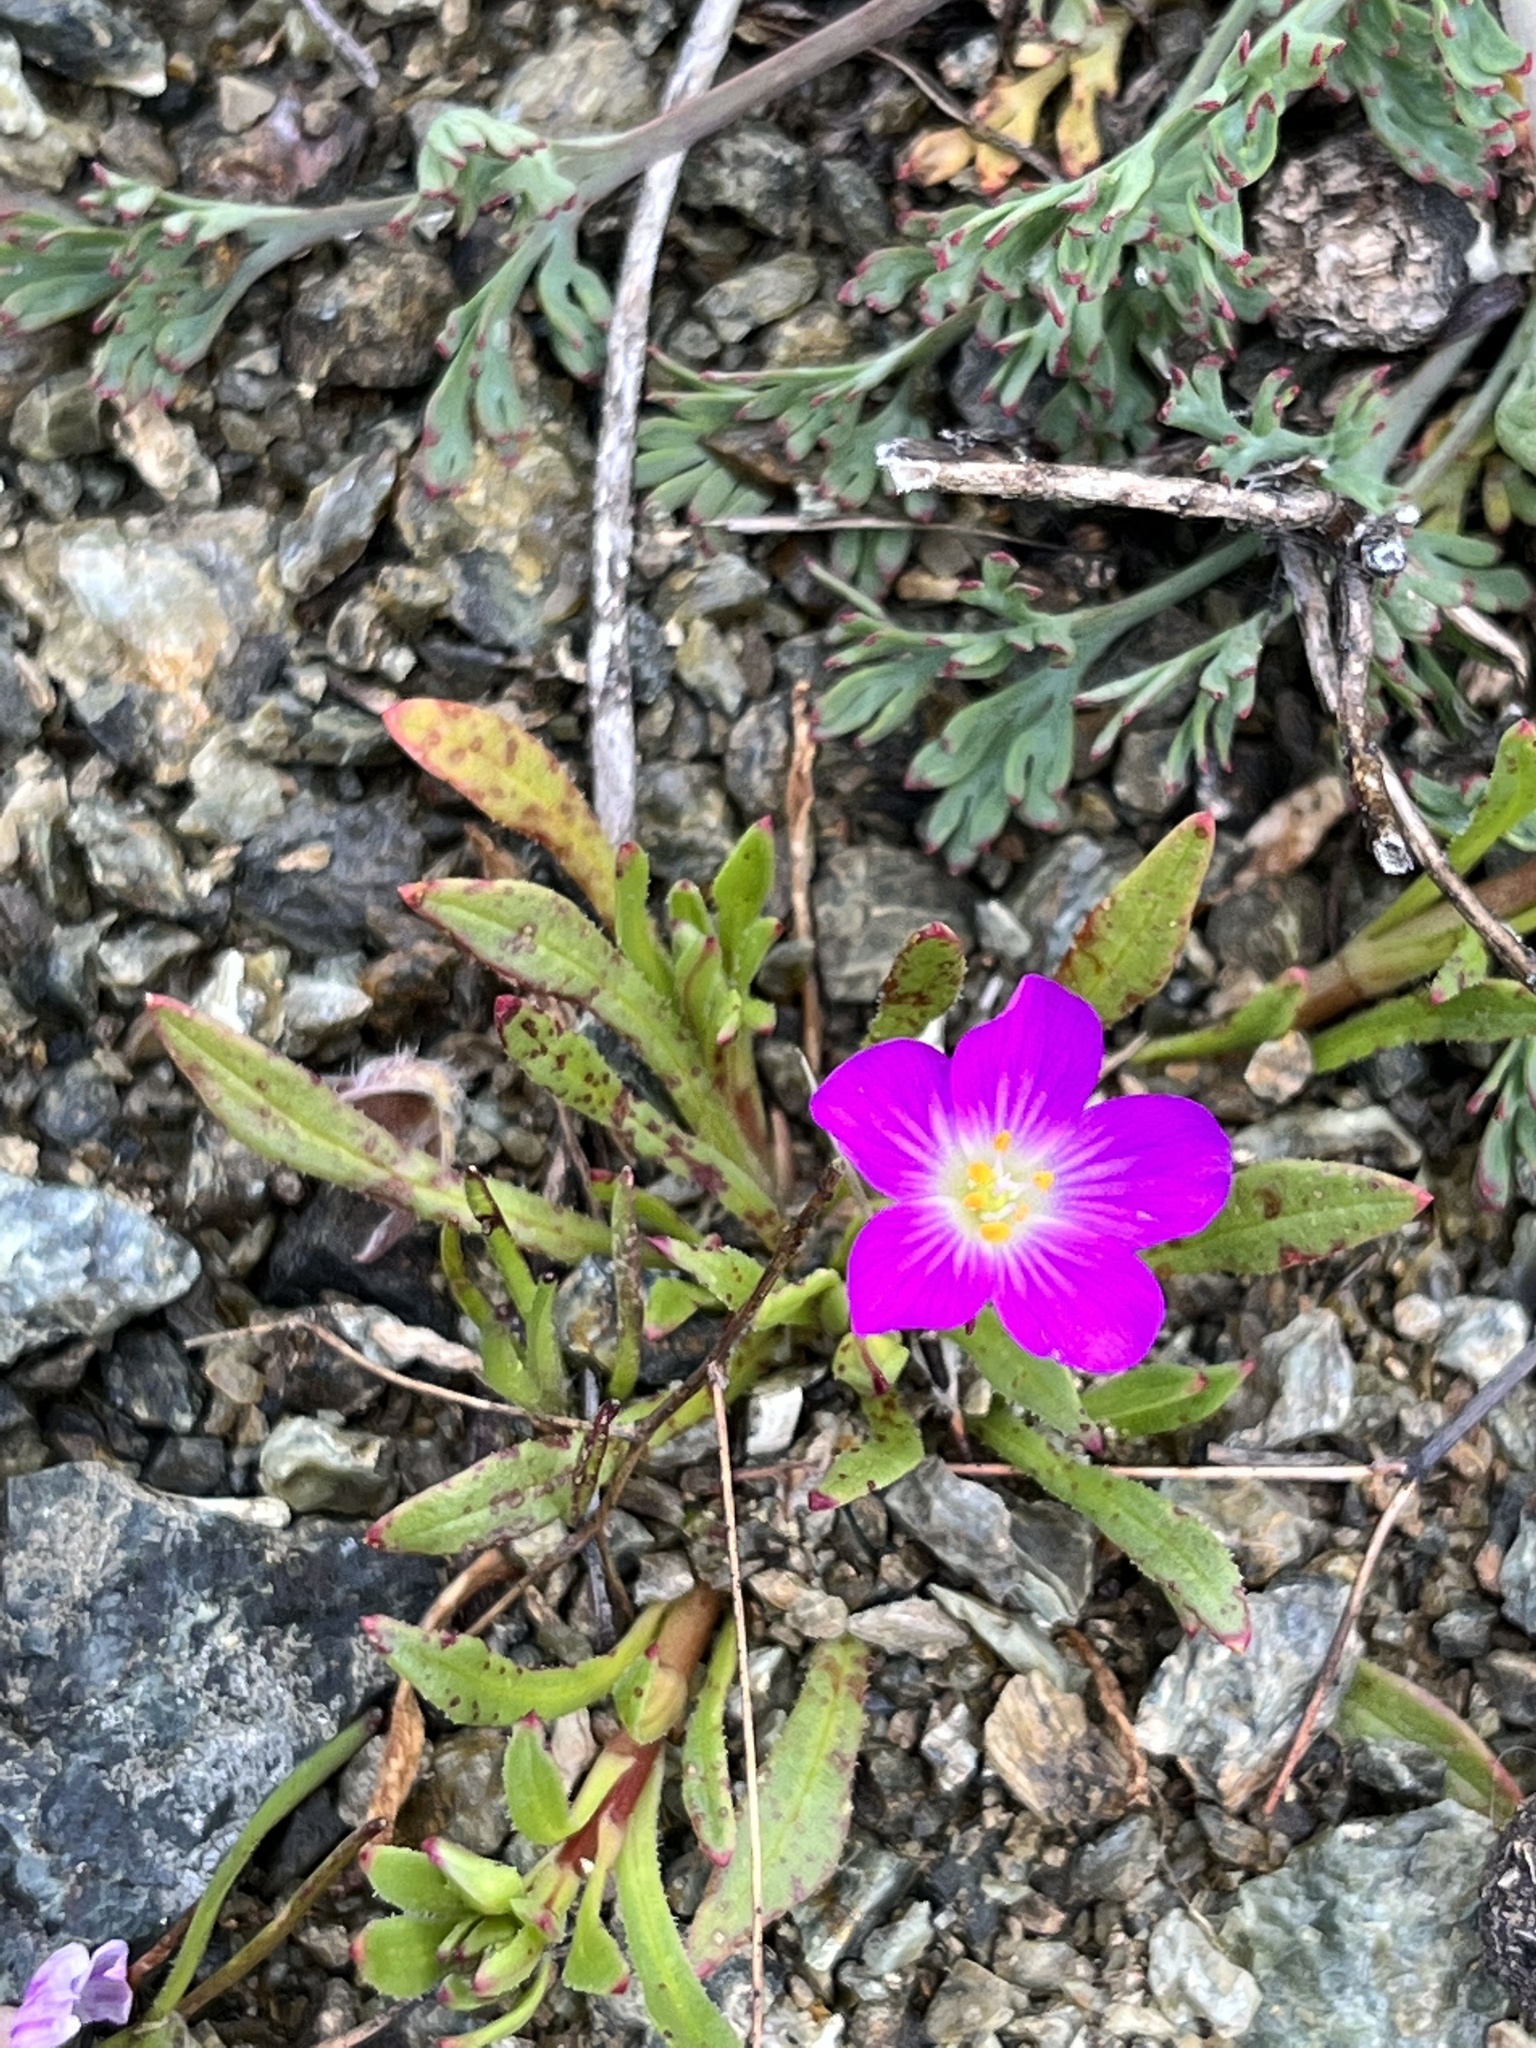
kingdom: Plantae
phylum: Tracheophyta
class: Magnoliopsida
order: Caryophyllales
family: Montiaceae
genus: Calandrinia
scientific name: Calandrinia menziesii
